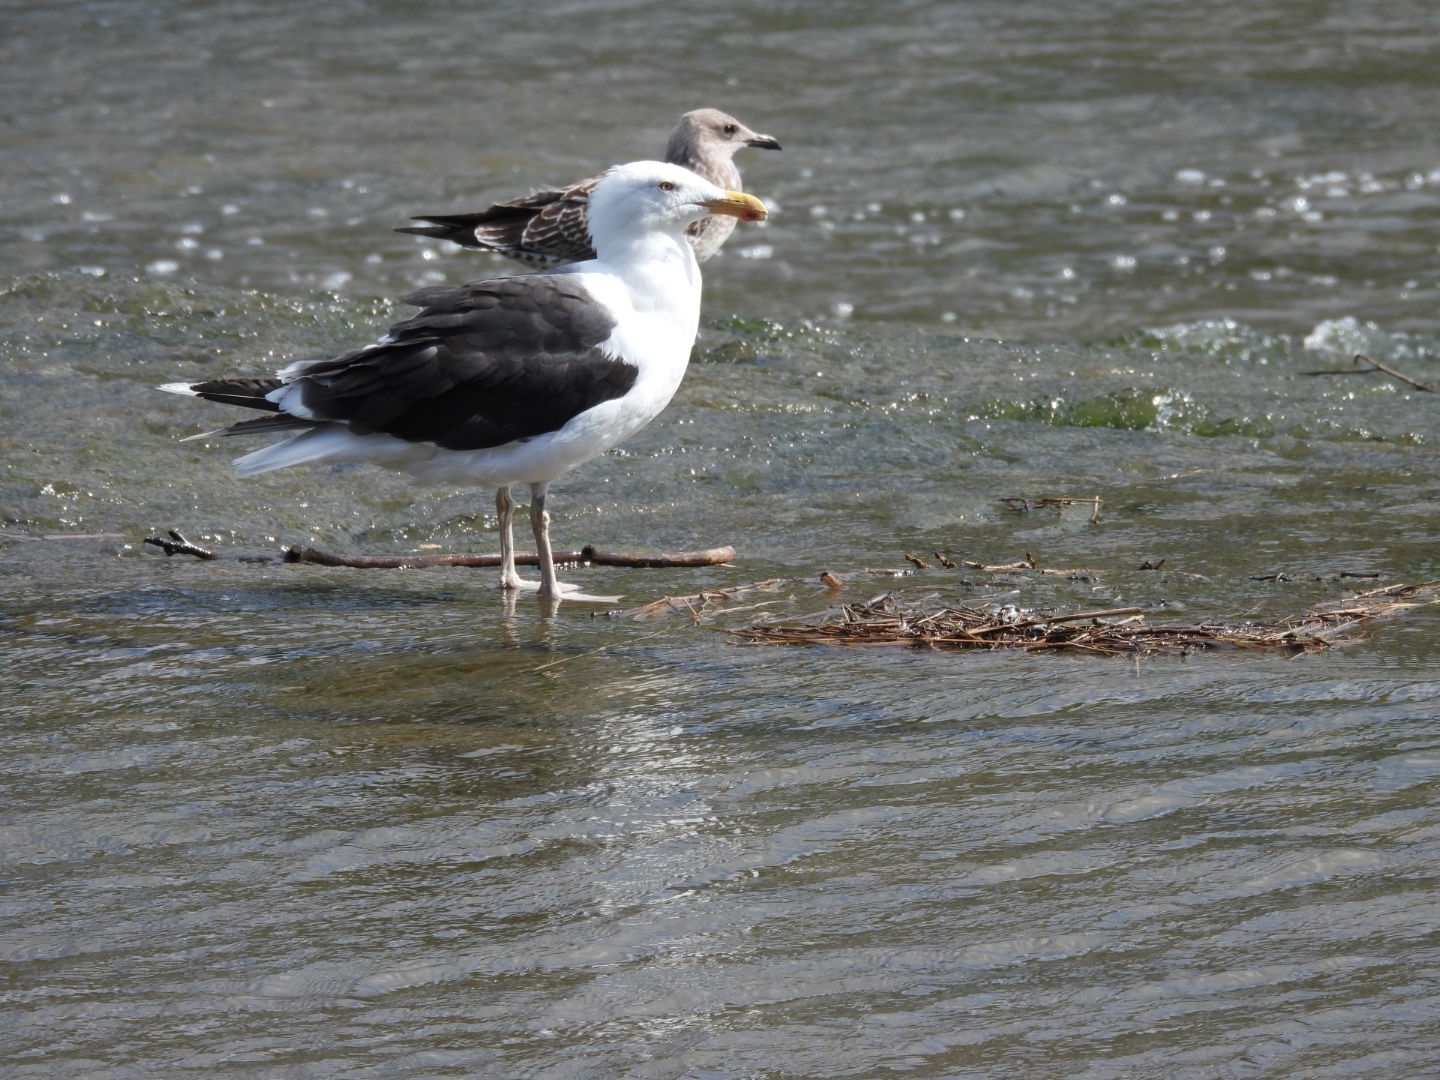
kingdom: Animalia
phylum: Chordata
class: Aves
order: Charadriiformes
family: Laridae
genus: Larus
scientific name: Larus marinus
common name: Great black-backed gull
